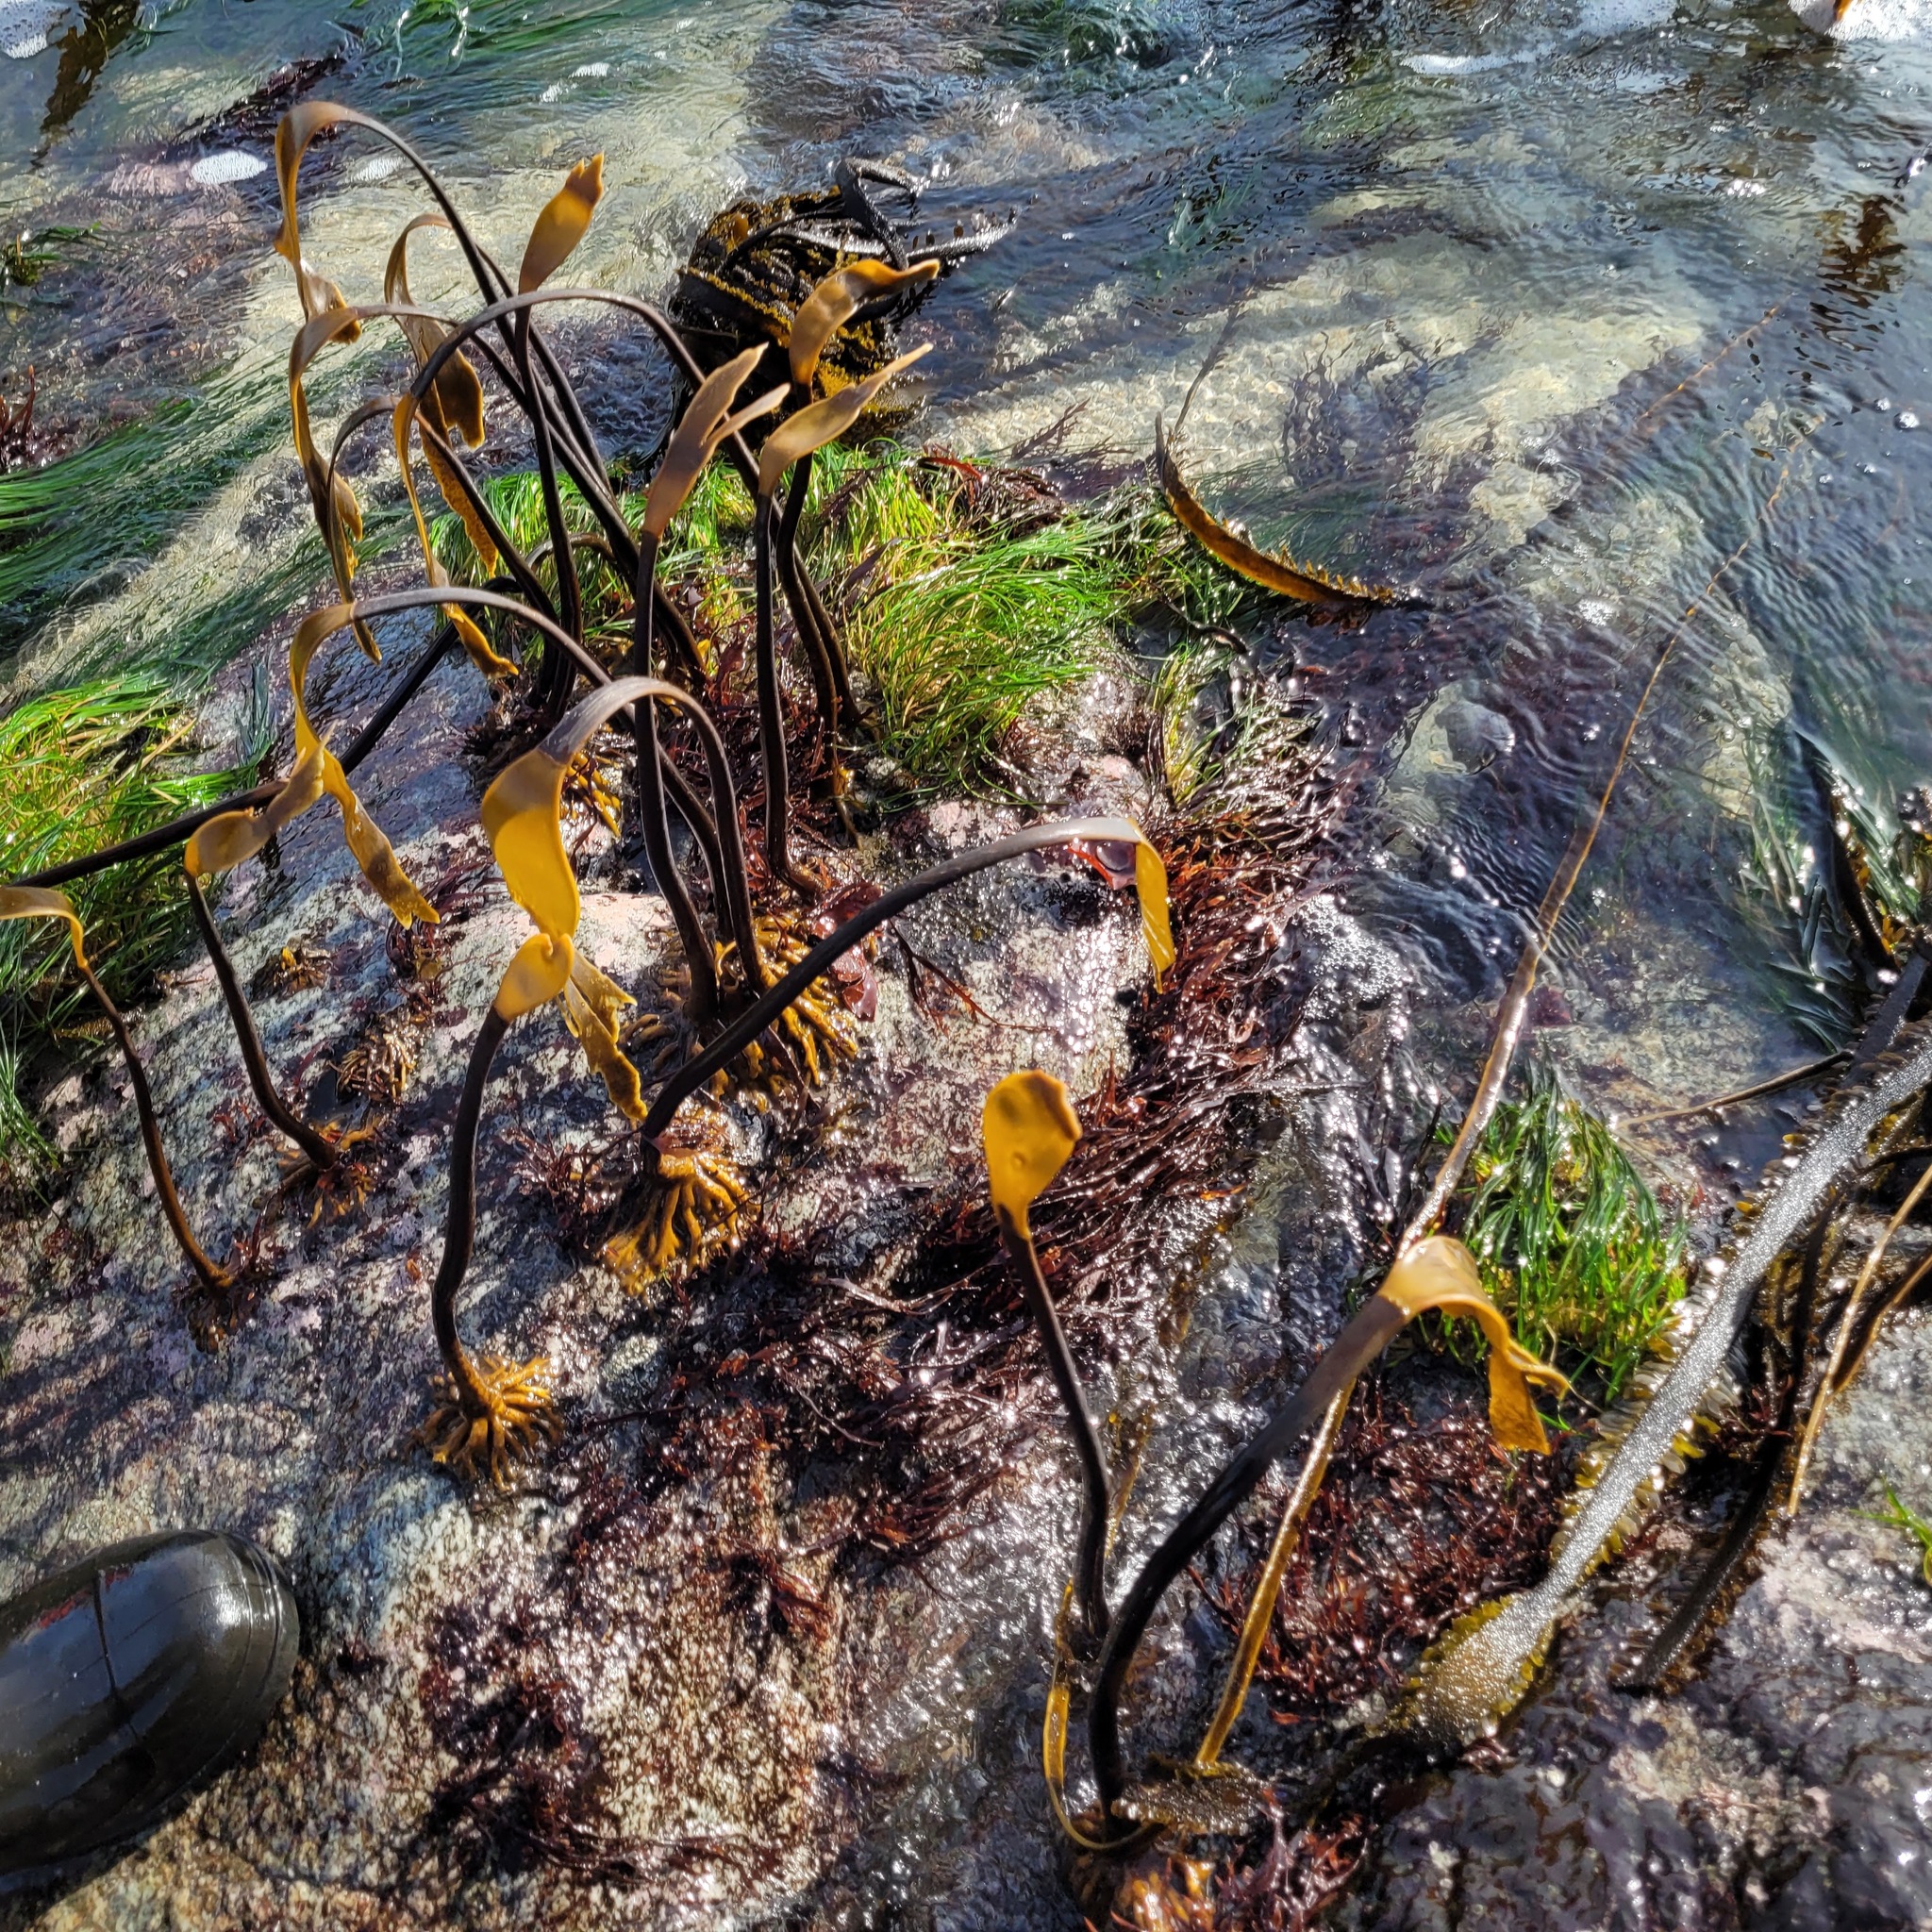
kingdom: Chromista
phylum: Ochrophyta
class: Phaeophyceae
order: Laminariales
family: Laminariaceae
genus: Laminaria
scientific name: Laminaria setchellii
